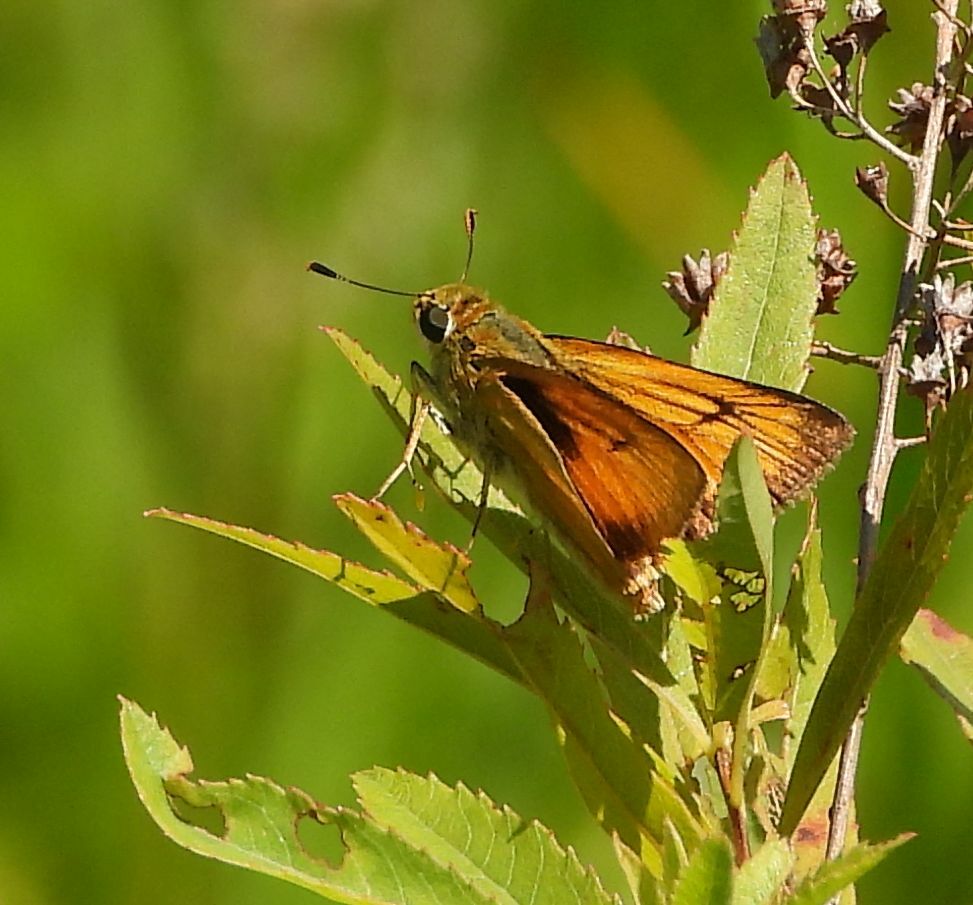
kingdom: Animalia
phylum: Arthropoda
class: Insecta
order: Lepidoptera
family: Hesperiidae
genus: Atrytone
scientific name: Atrytone delaware
